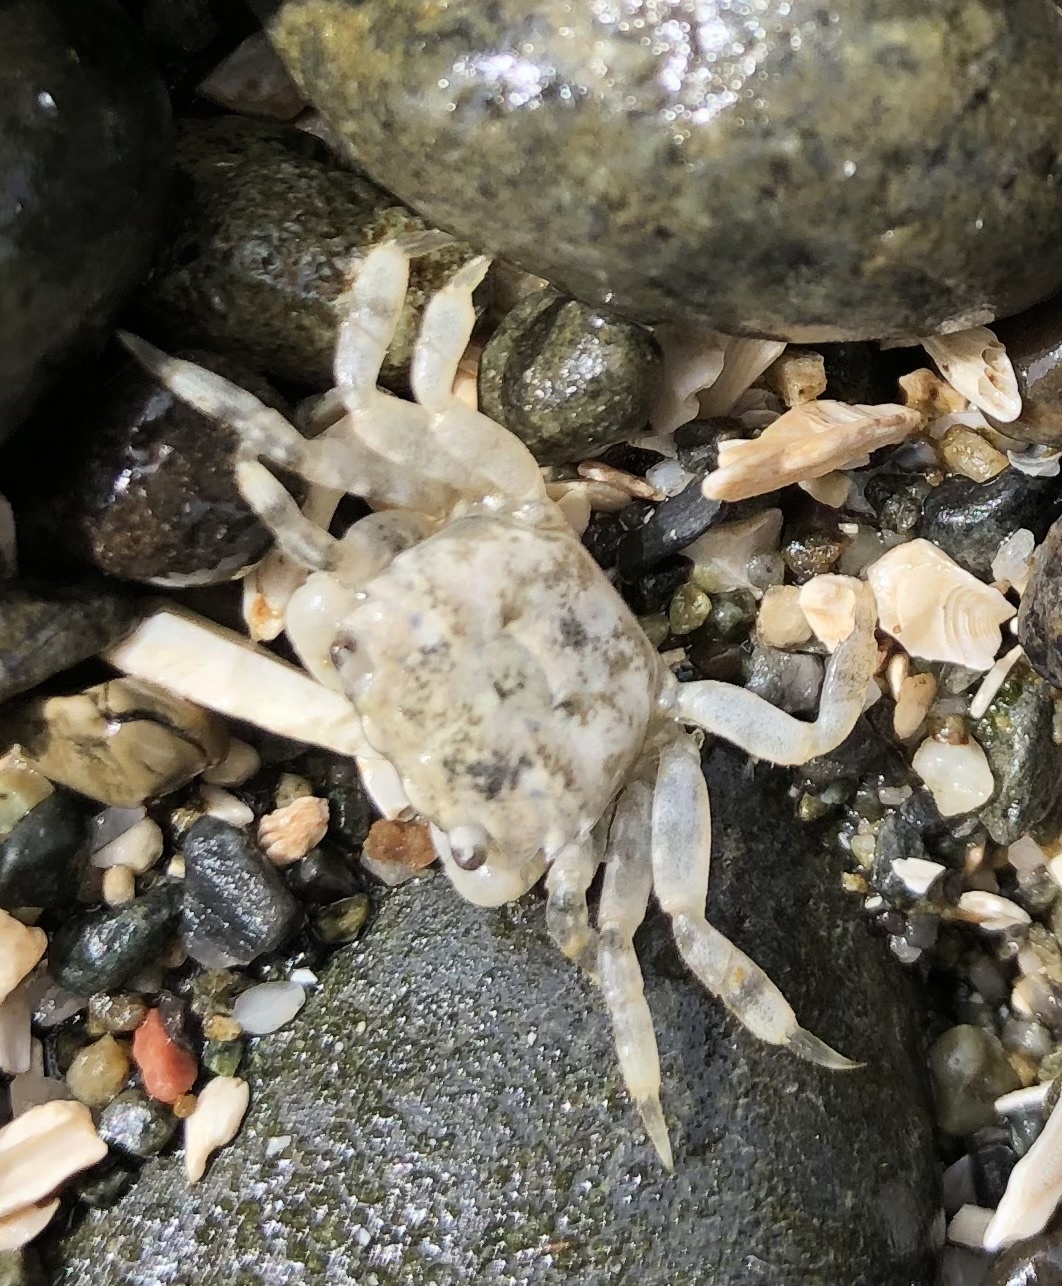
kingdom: Animalia
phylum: Arthropoda
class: Malacostraca
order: Decapoda
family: Varunidae
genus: Hemigrapsus
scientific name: Hemigrapsus oregonensis
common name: Yellow shore crab
